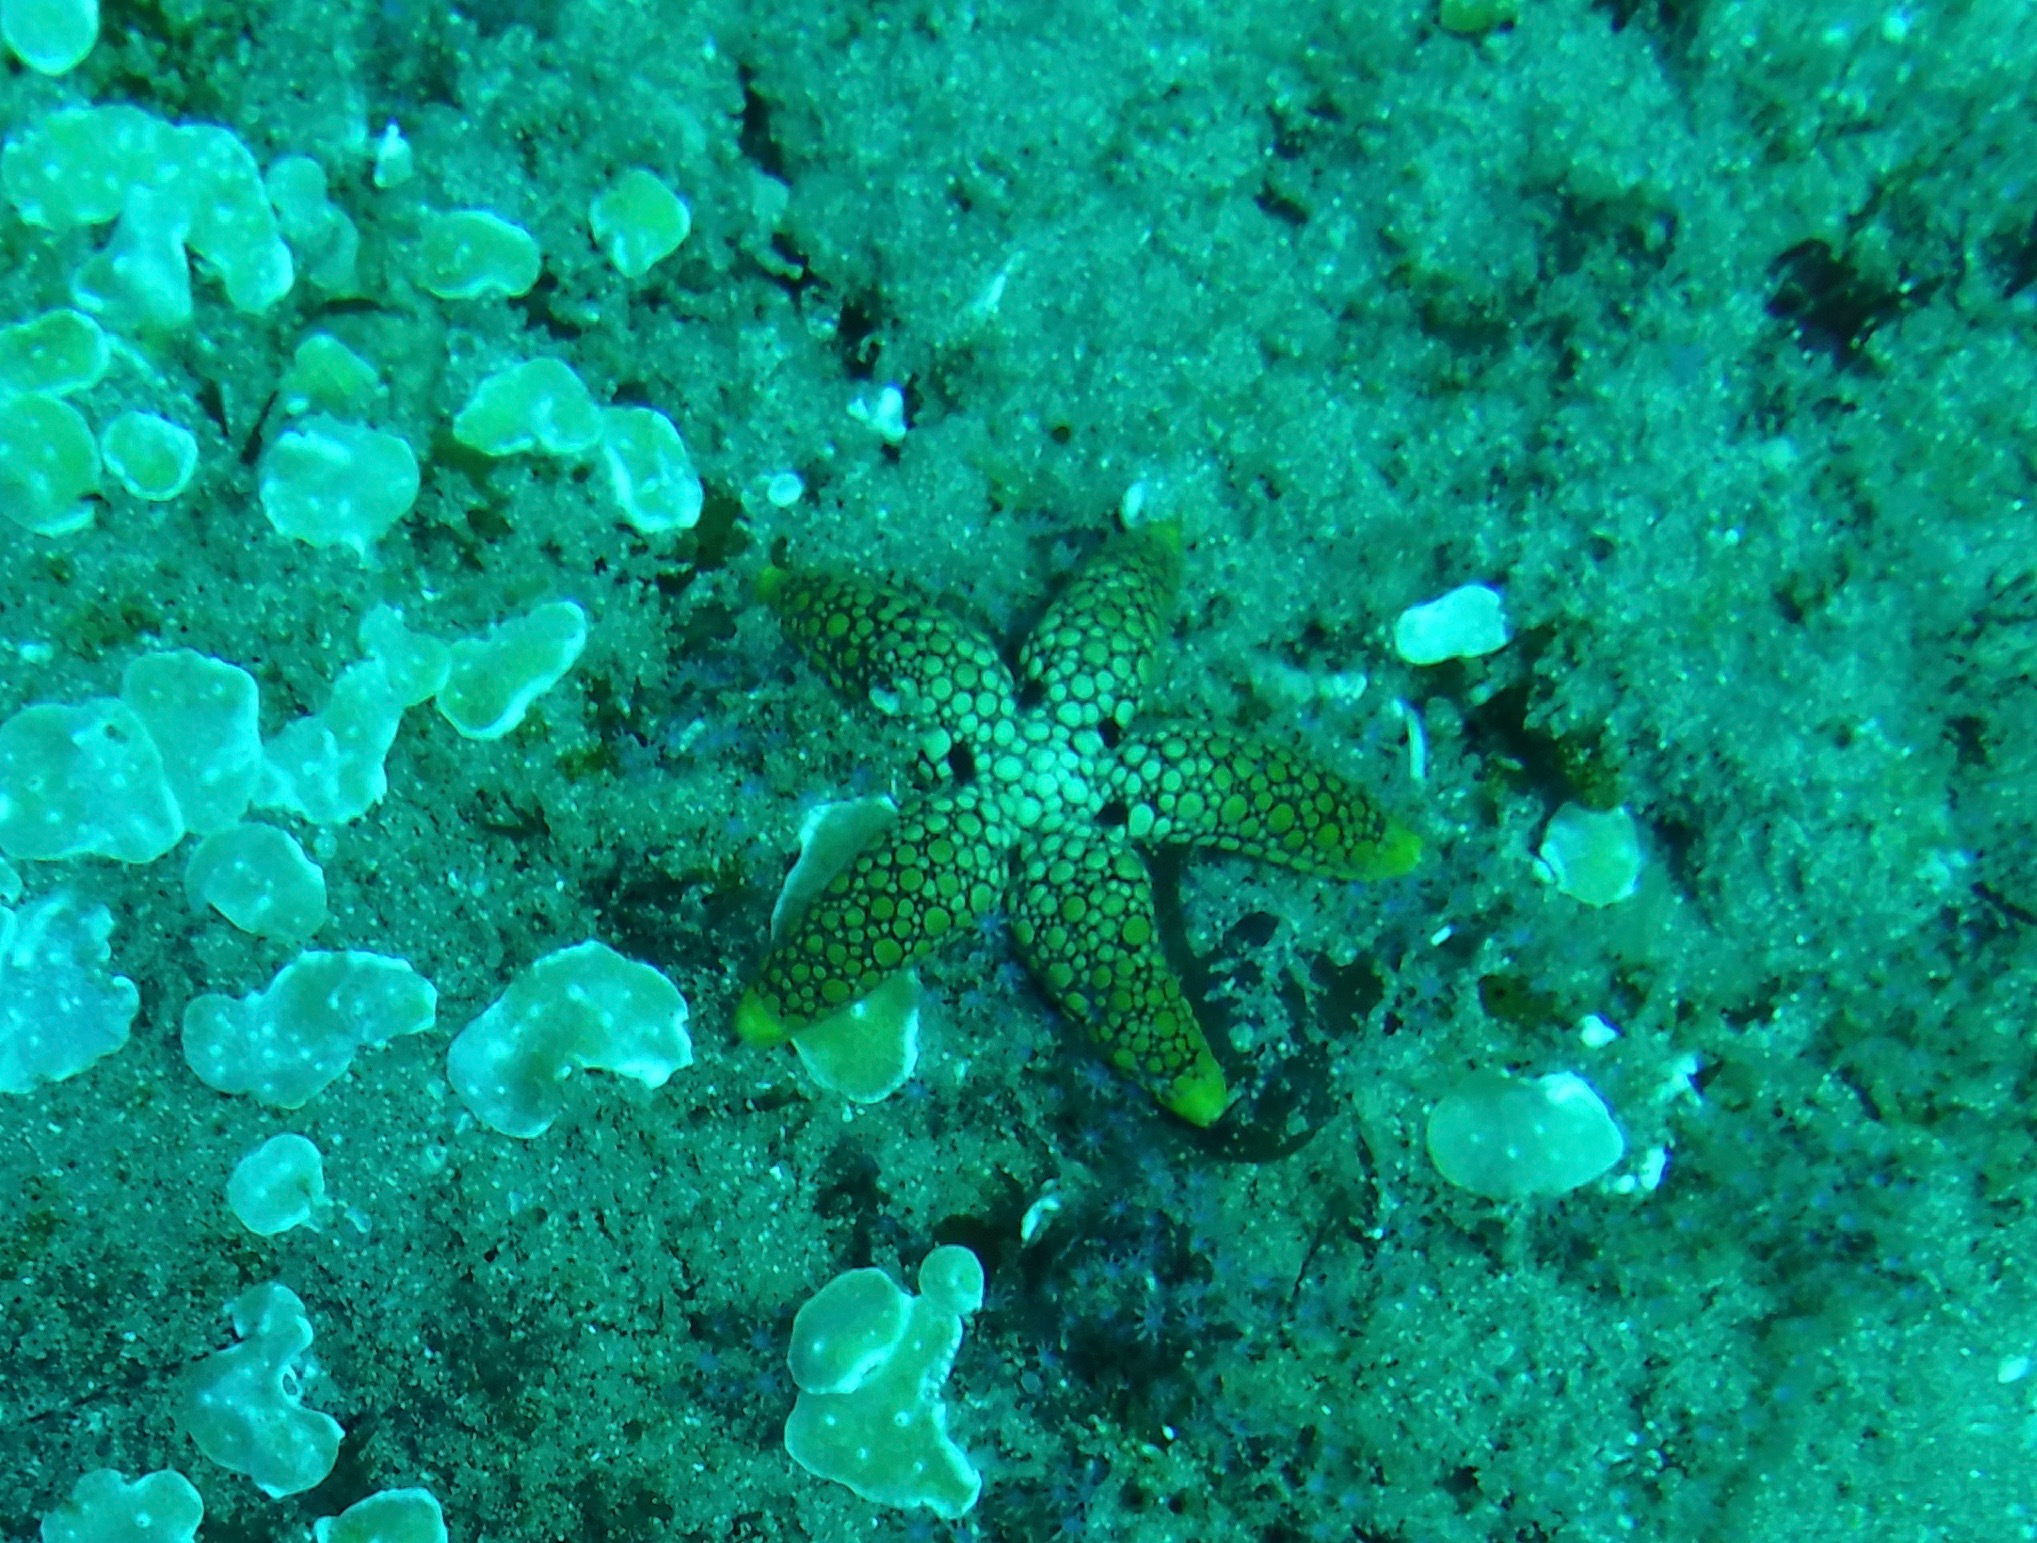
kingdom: Animalia
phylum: Echinodermata
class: Asteroidea
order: Valvatida
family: Goniasteridae
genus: Ferdina
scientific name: Ferdina mena
